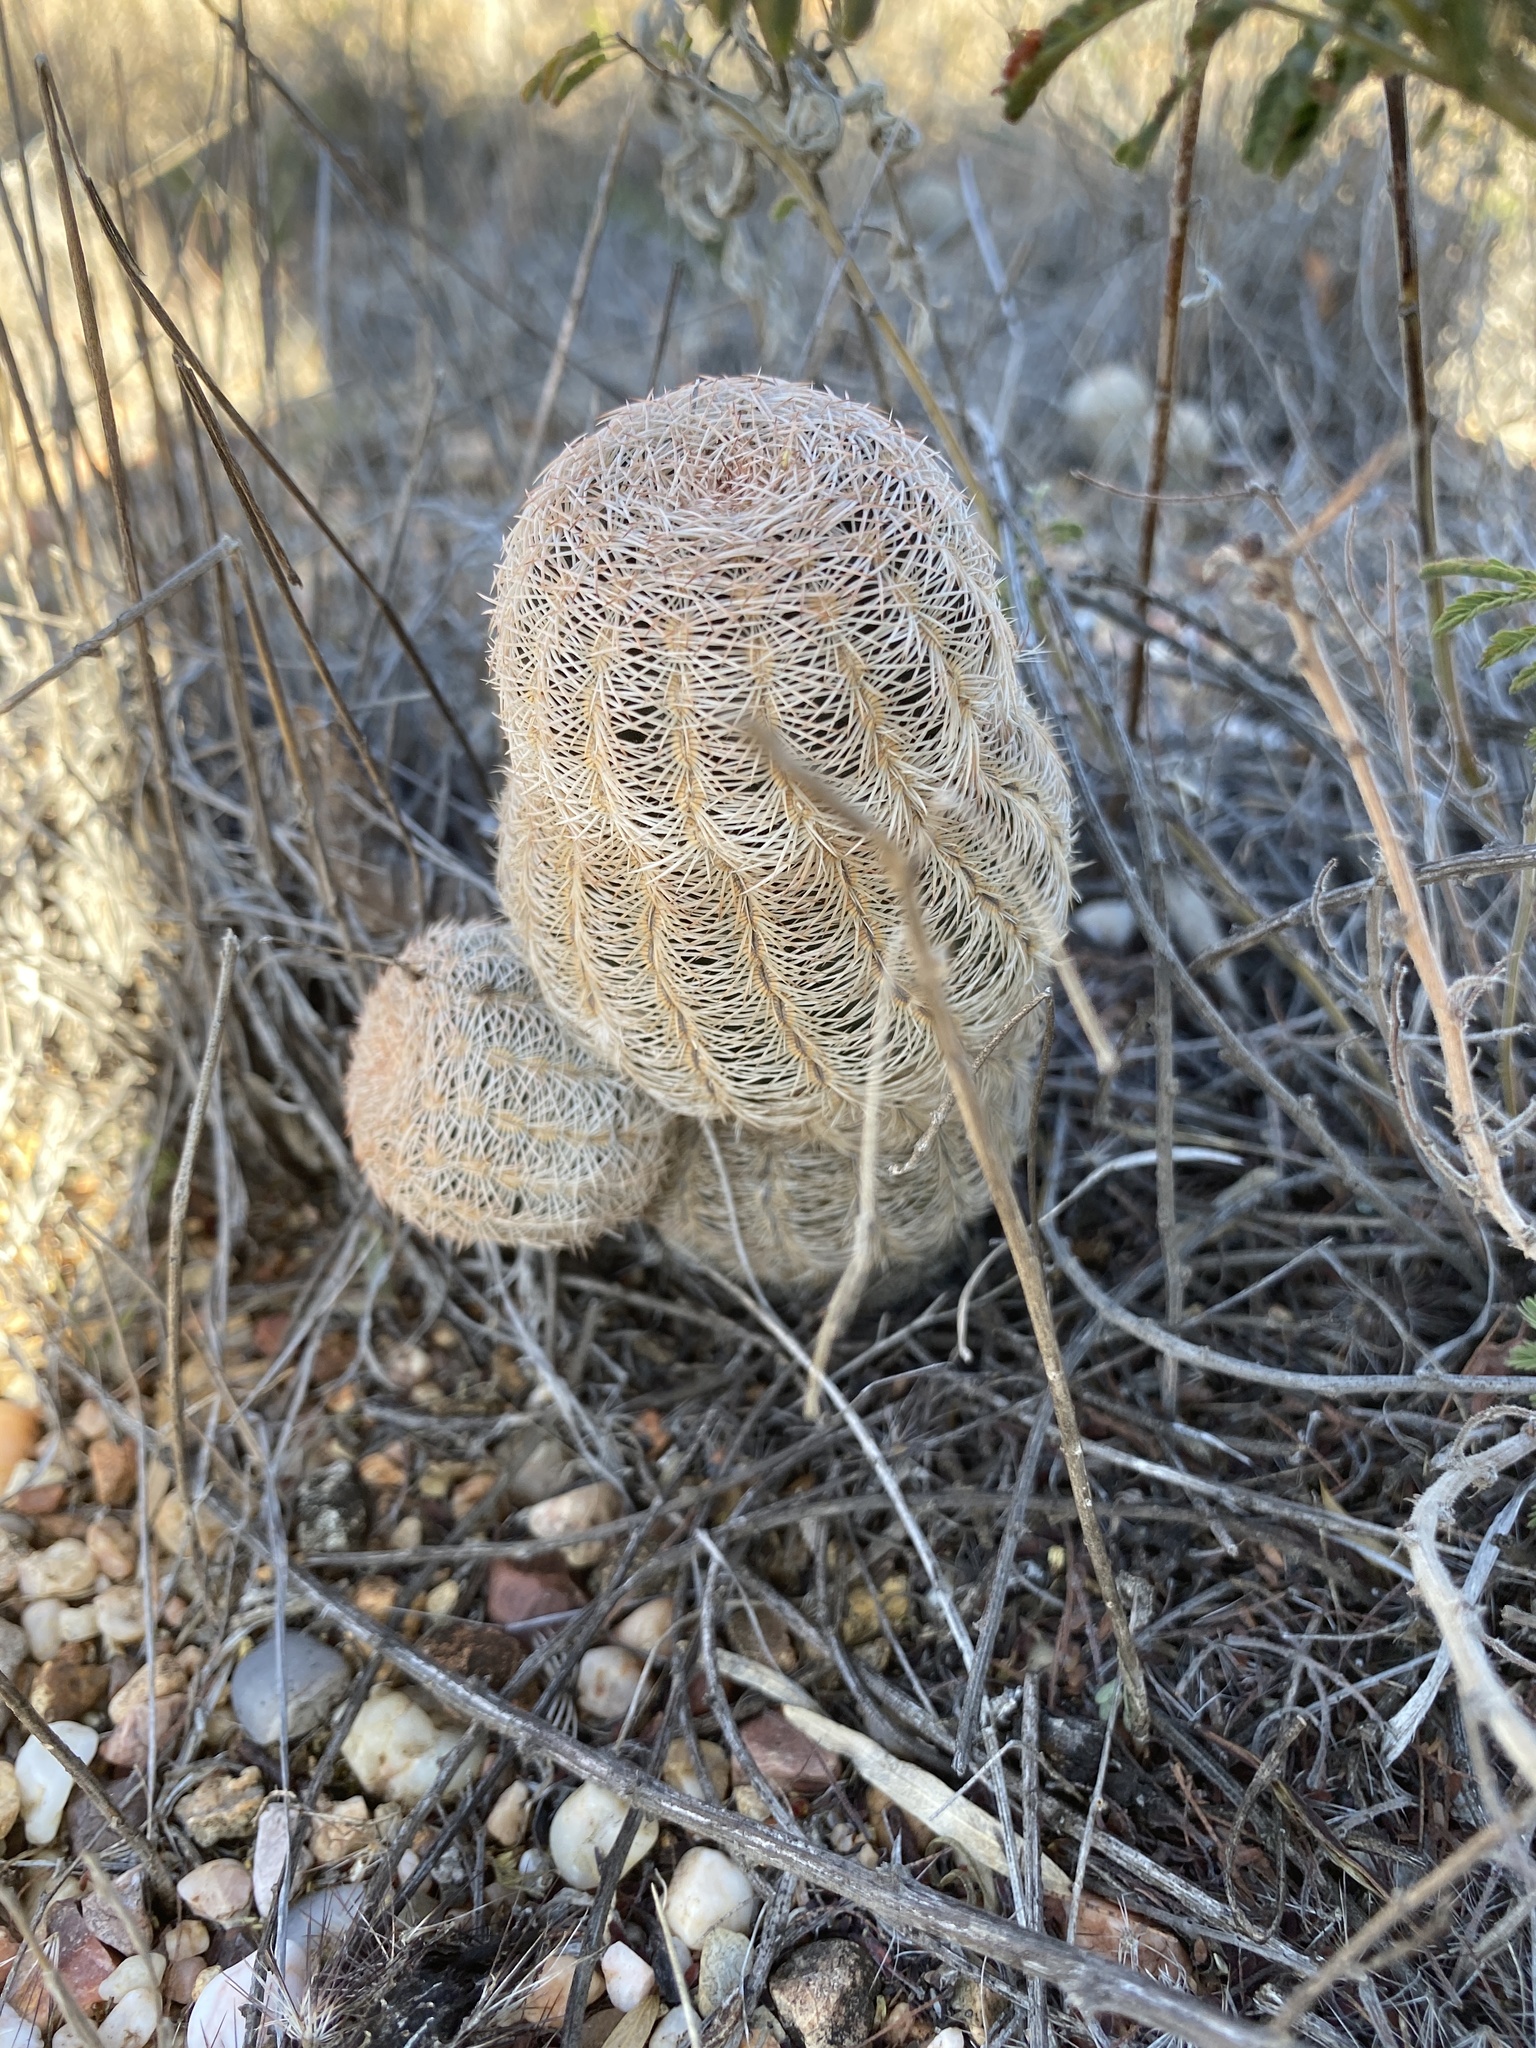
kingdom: Plantae
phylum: Tracheophyta
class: Magnoliopsida
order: Caryophyllales
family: Cactaceae
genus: Echinocereus
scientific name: Echinocereus reichenbachii
